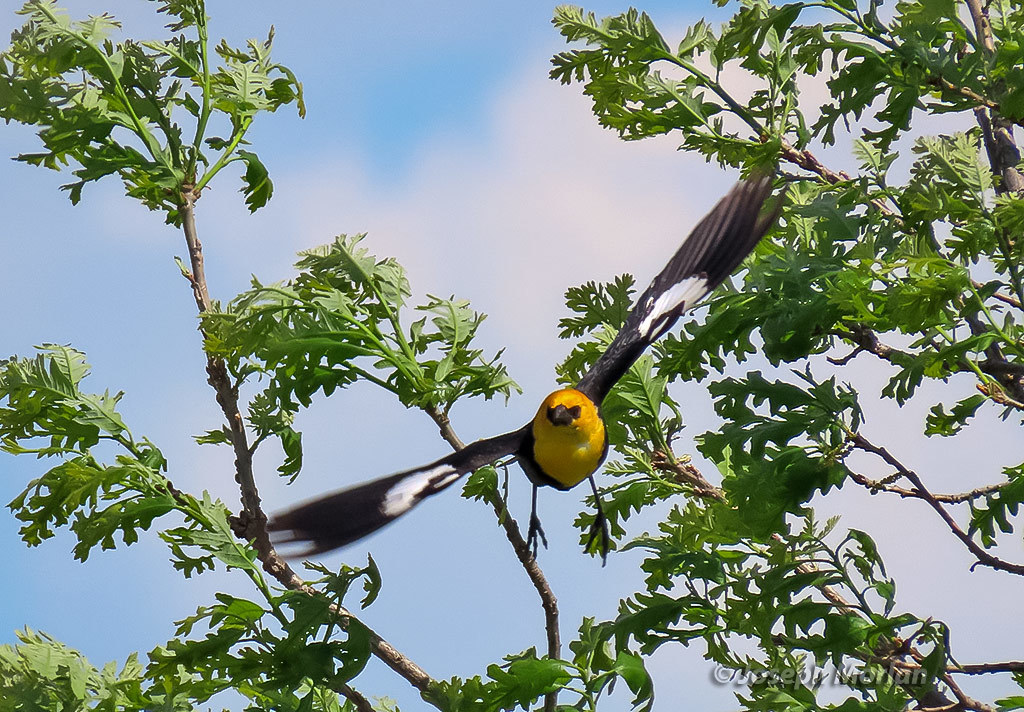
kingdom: Animalia
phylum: Chordata
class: Aves
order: Passeriformes
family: Icteridae
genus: Xanthocephalus
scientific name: Xanthocephalus xanthocephalus
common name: Yellow-headed blackbird
